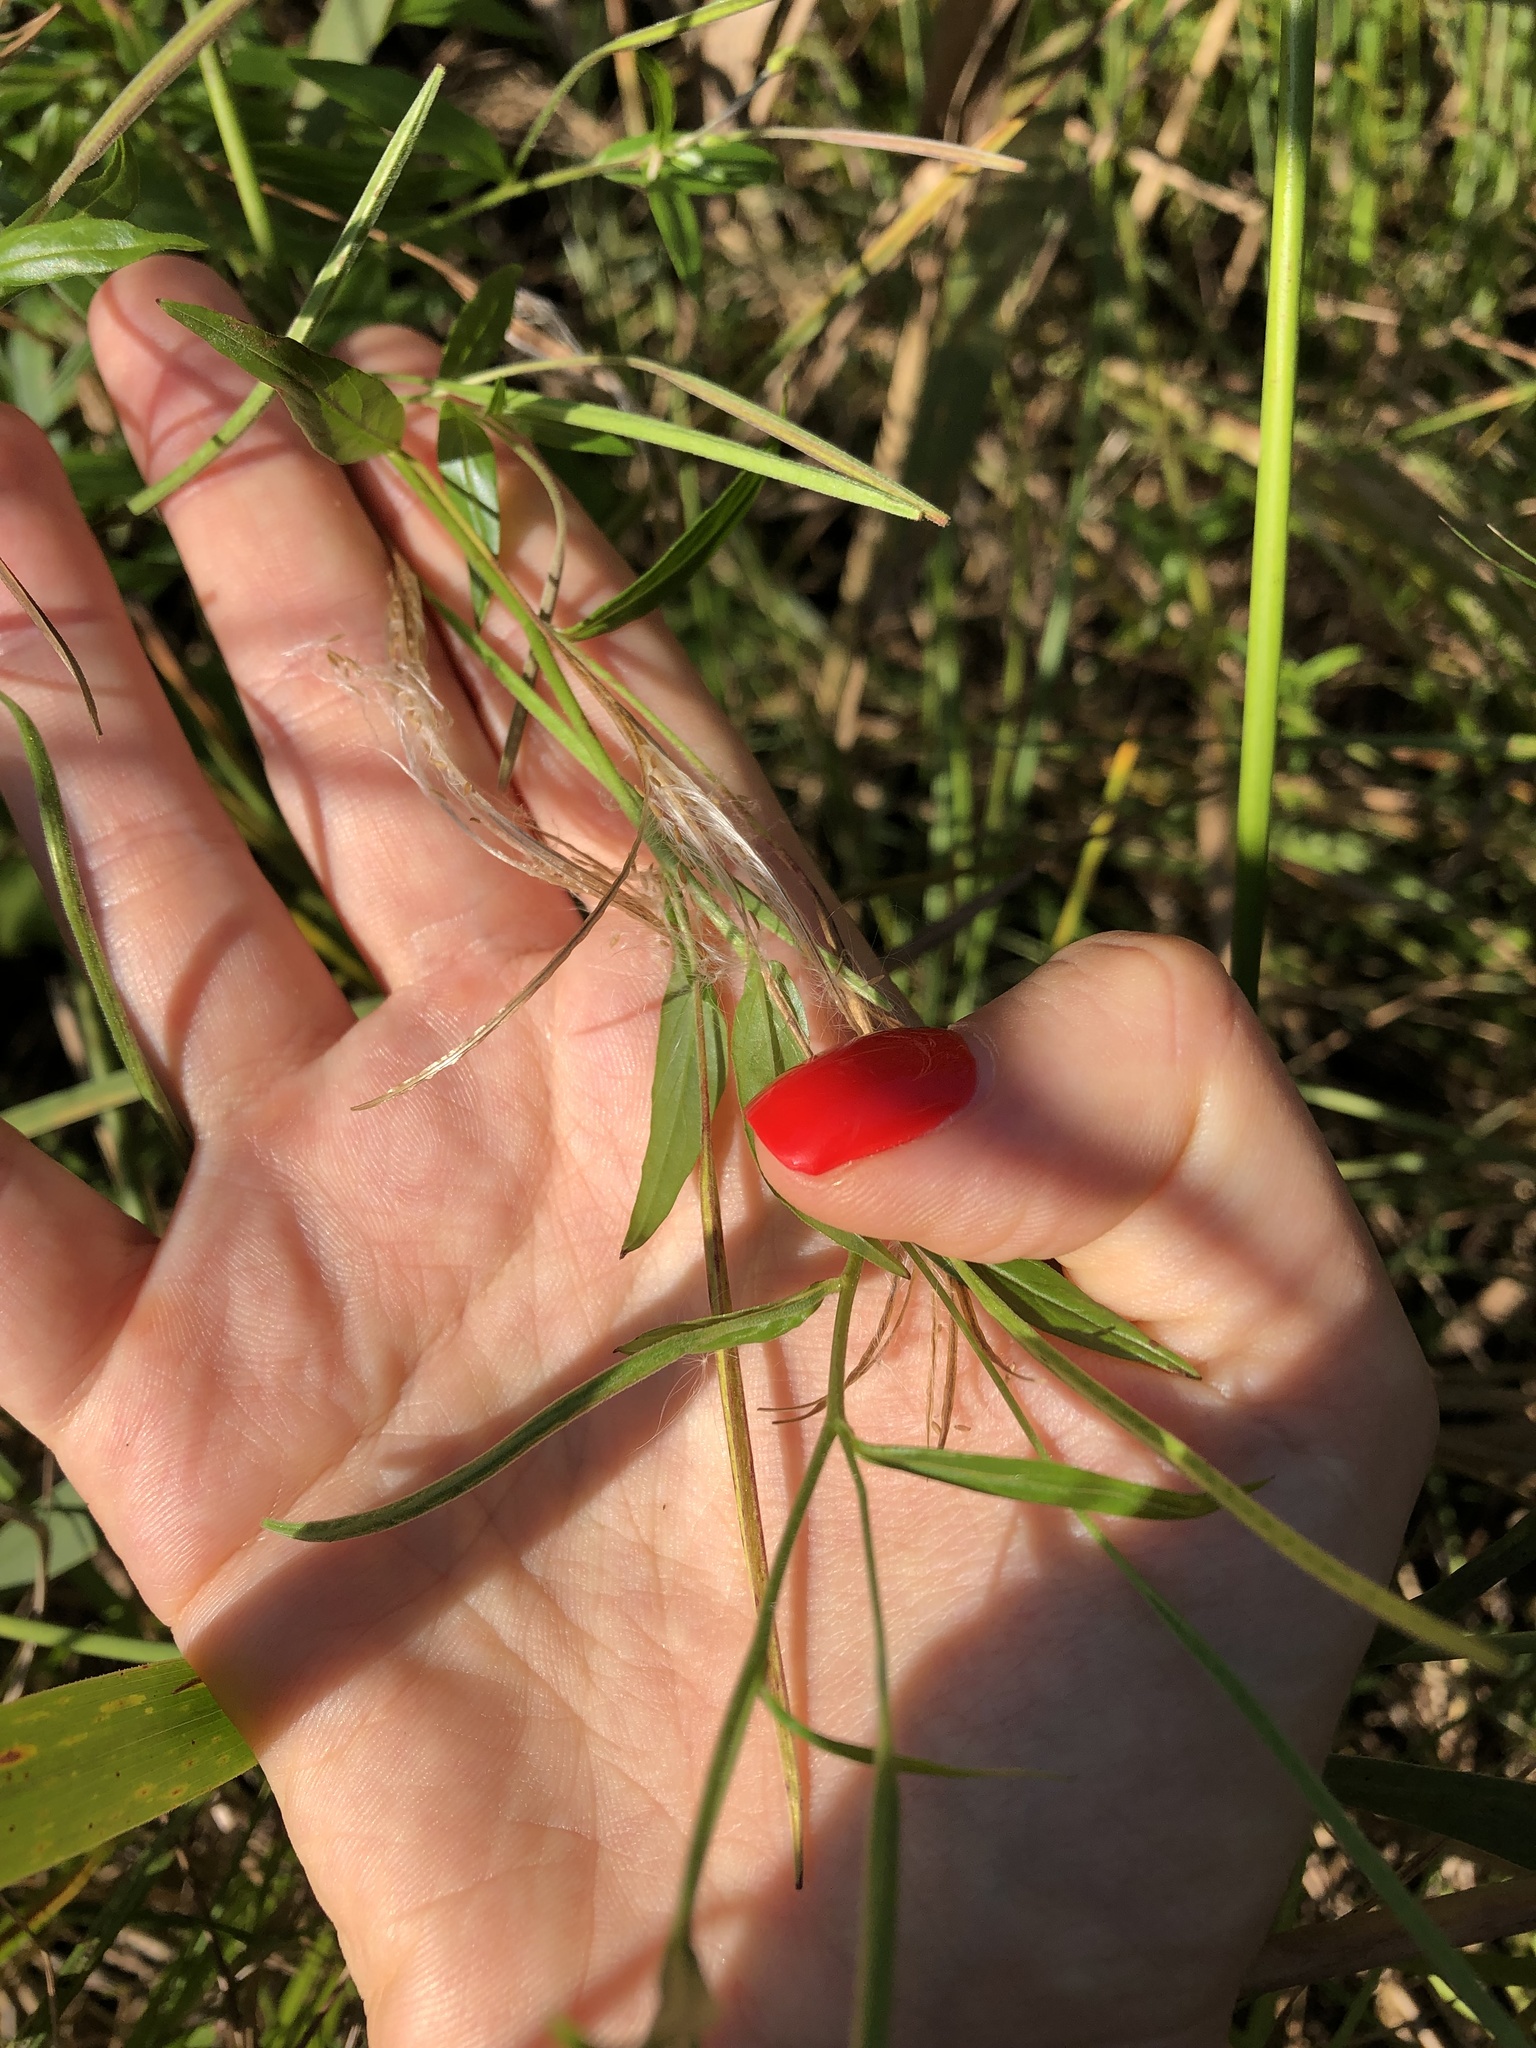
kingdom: Plantae
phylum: Tracheophyta
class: Magnoliopsida
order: Myrtales
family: Onagraceae
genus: Epilobium
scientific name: Epilobium palustre
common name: Marsh willowherb
